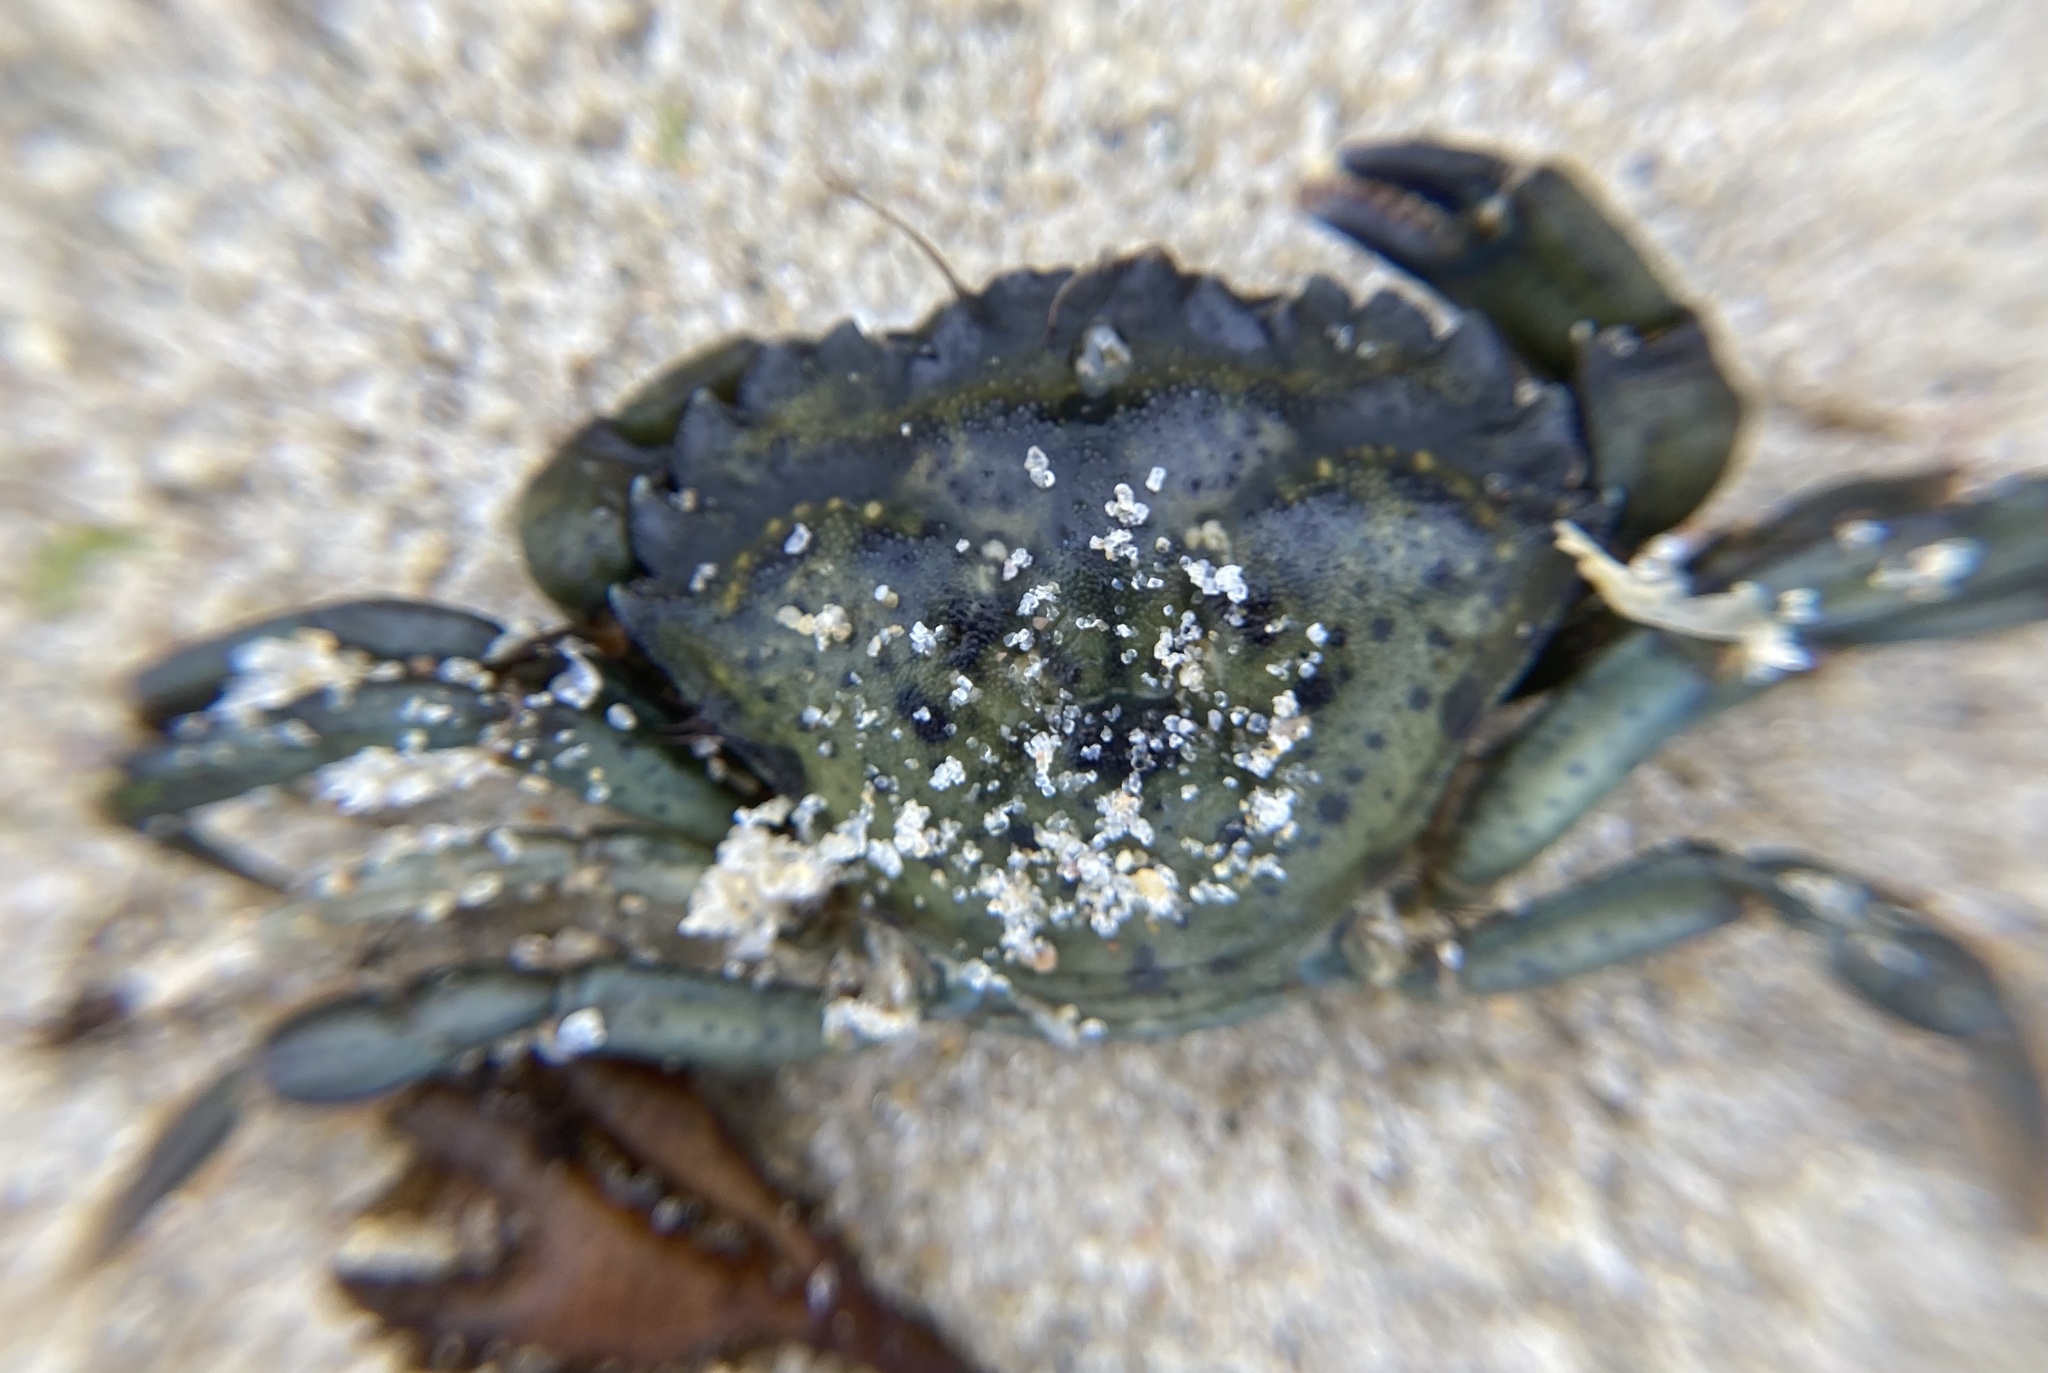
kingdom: Animalia
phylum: Arthropoda
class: Malacostraca
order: Decapoda
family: Carcinidae
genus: Carcinus
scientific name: Carcinus maenas
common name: European green crab
